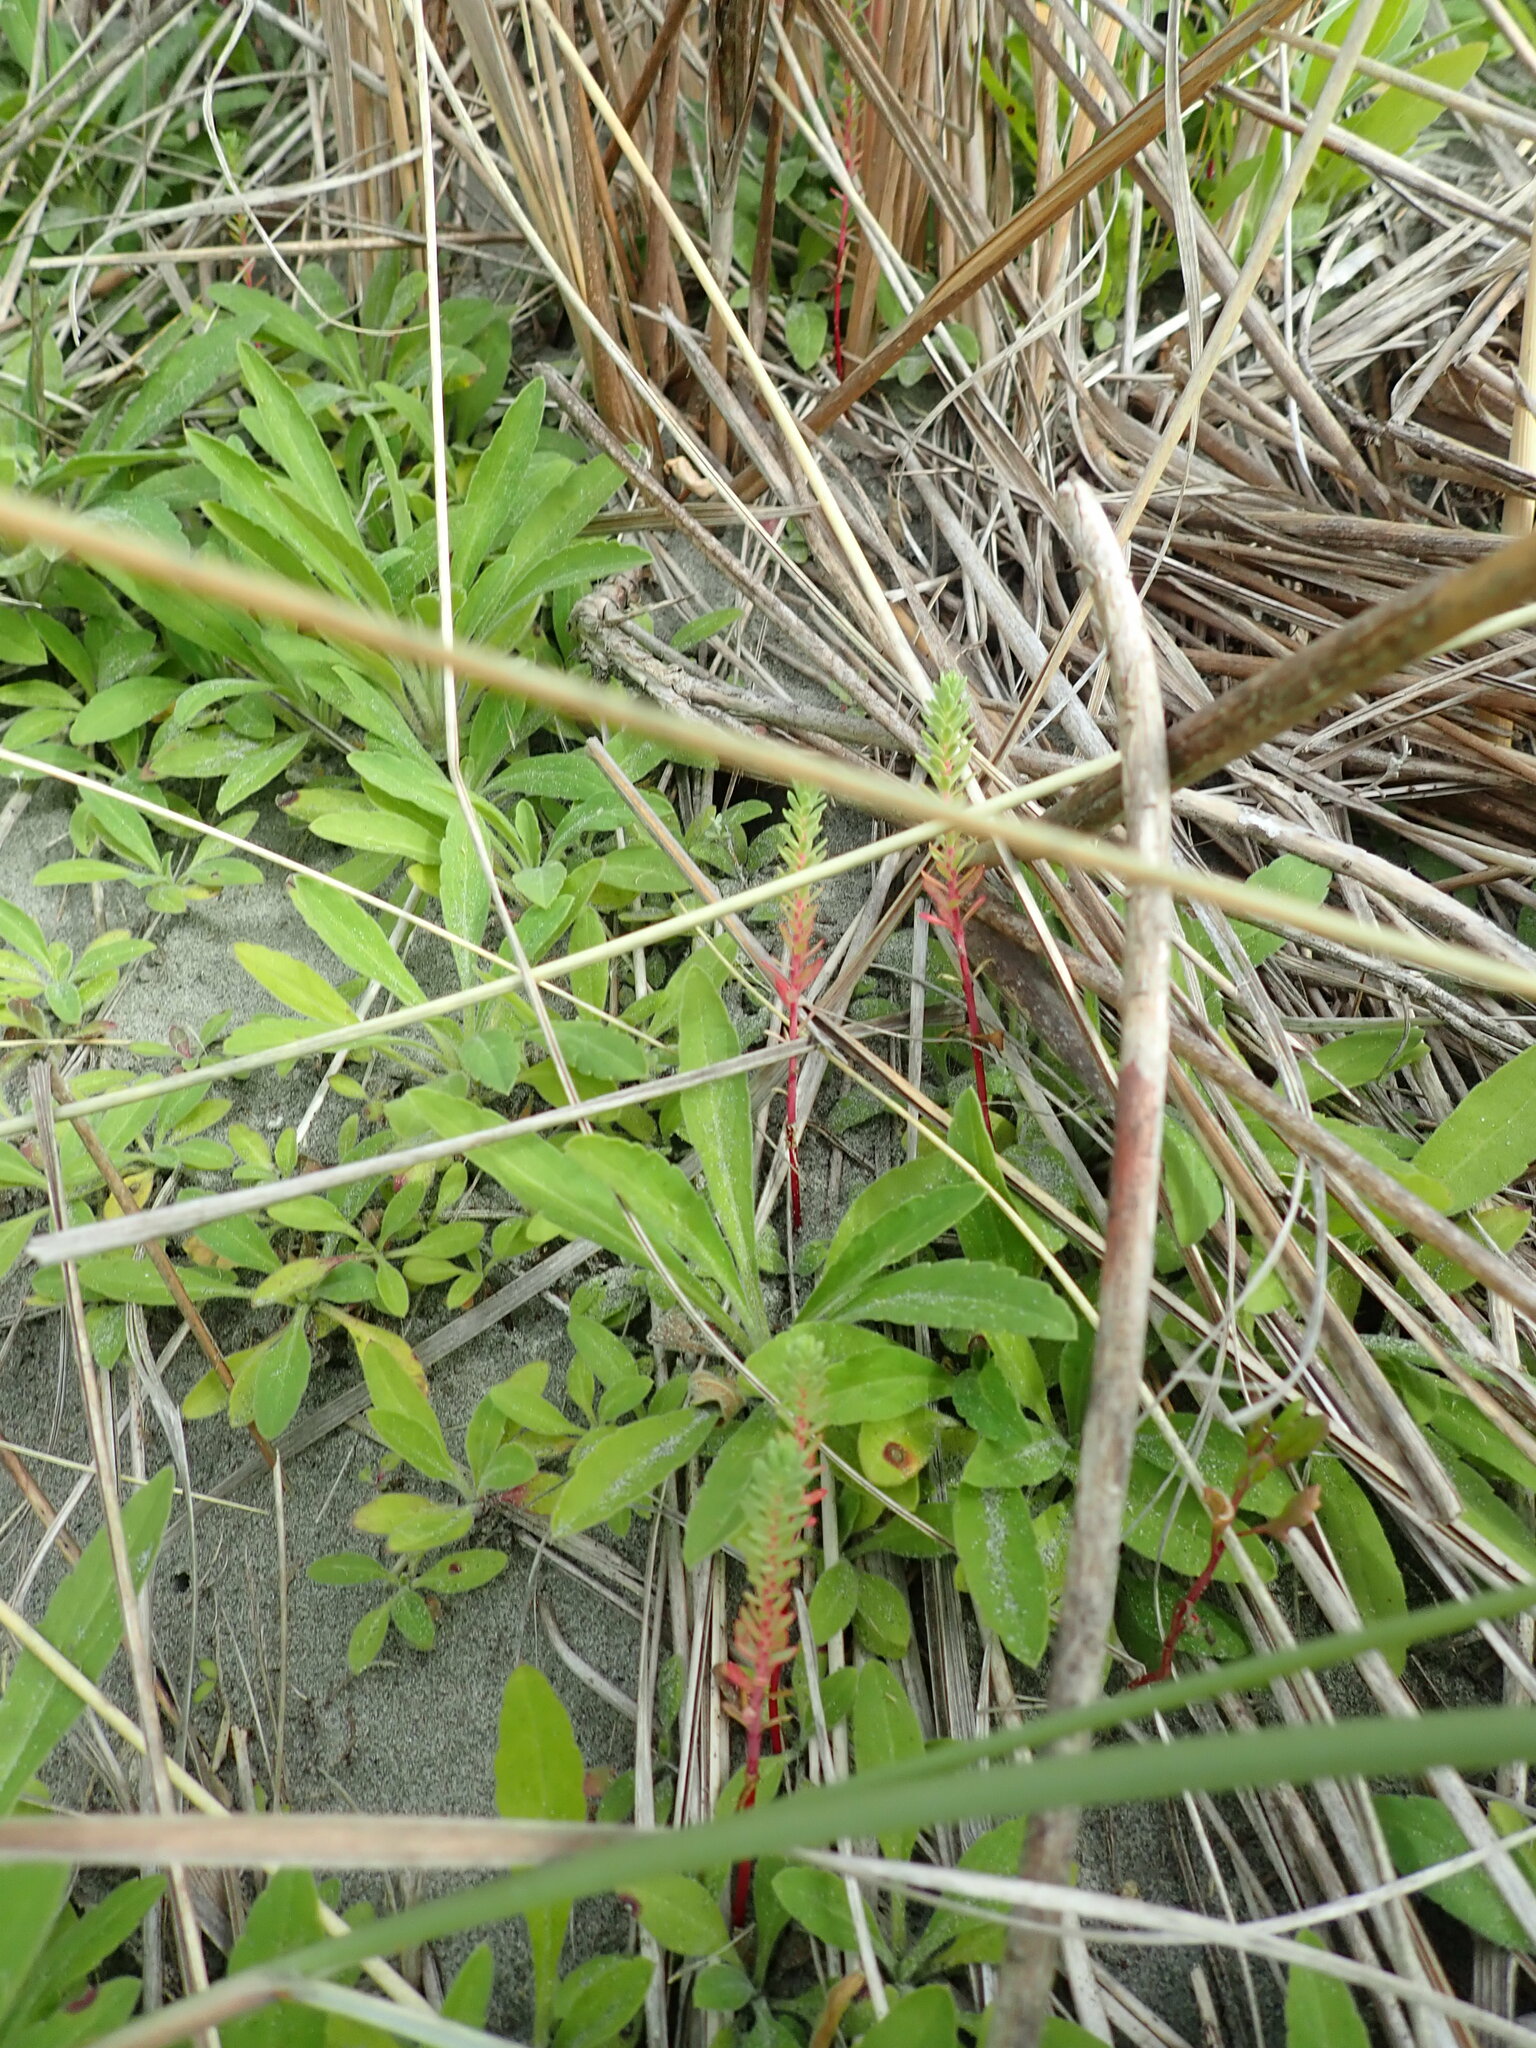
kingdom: Plantae
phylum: Tracheophyta
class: Magnoliopsida
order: Malpighiales
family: Euphorbiaceae
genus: Euphorbia
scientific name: Euphorbia paralias
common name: Sea spurge
